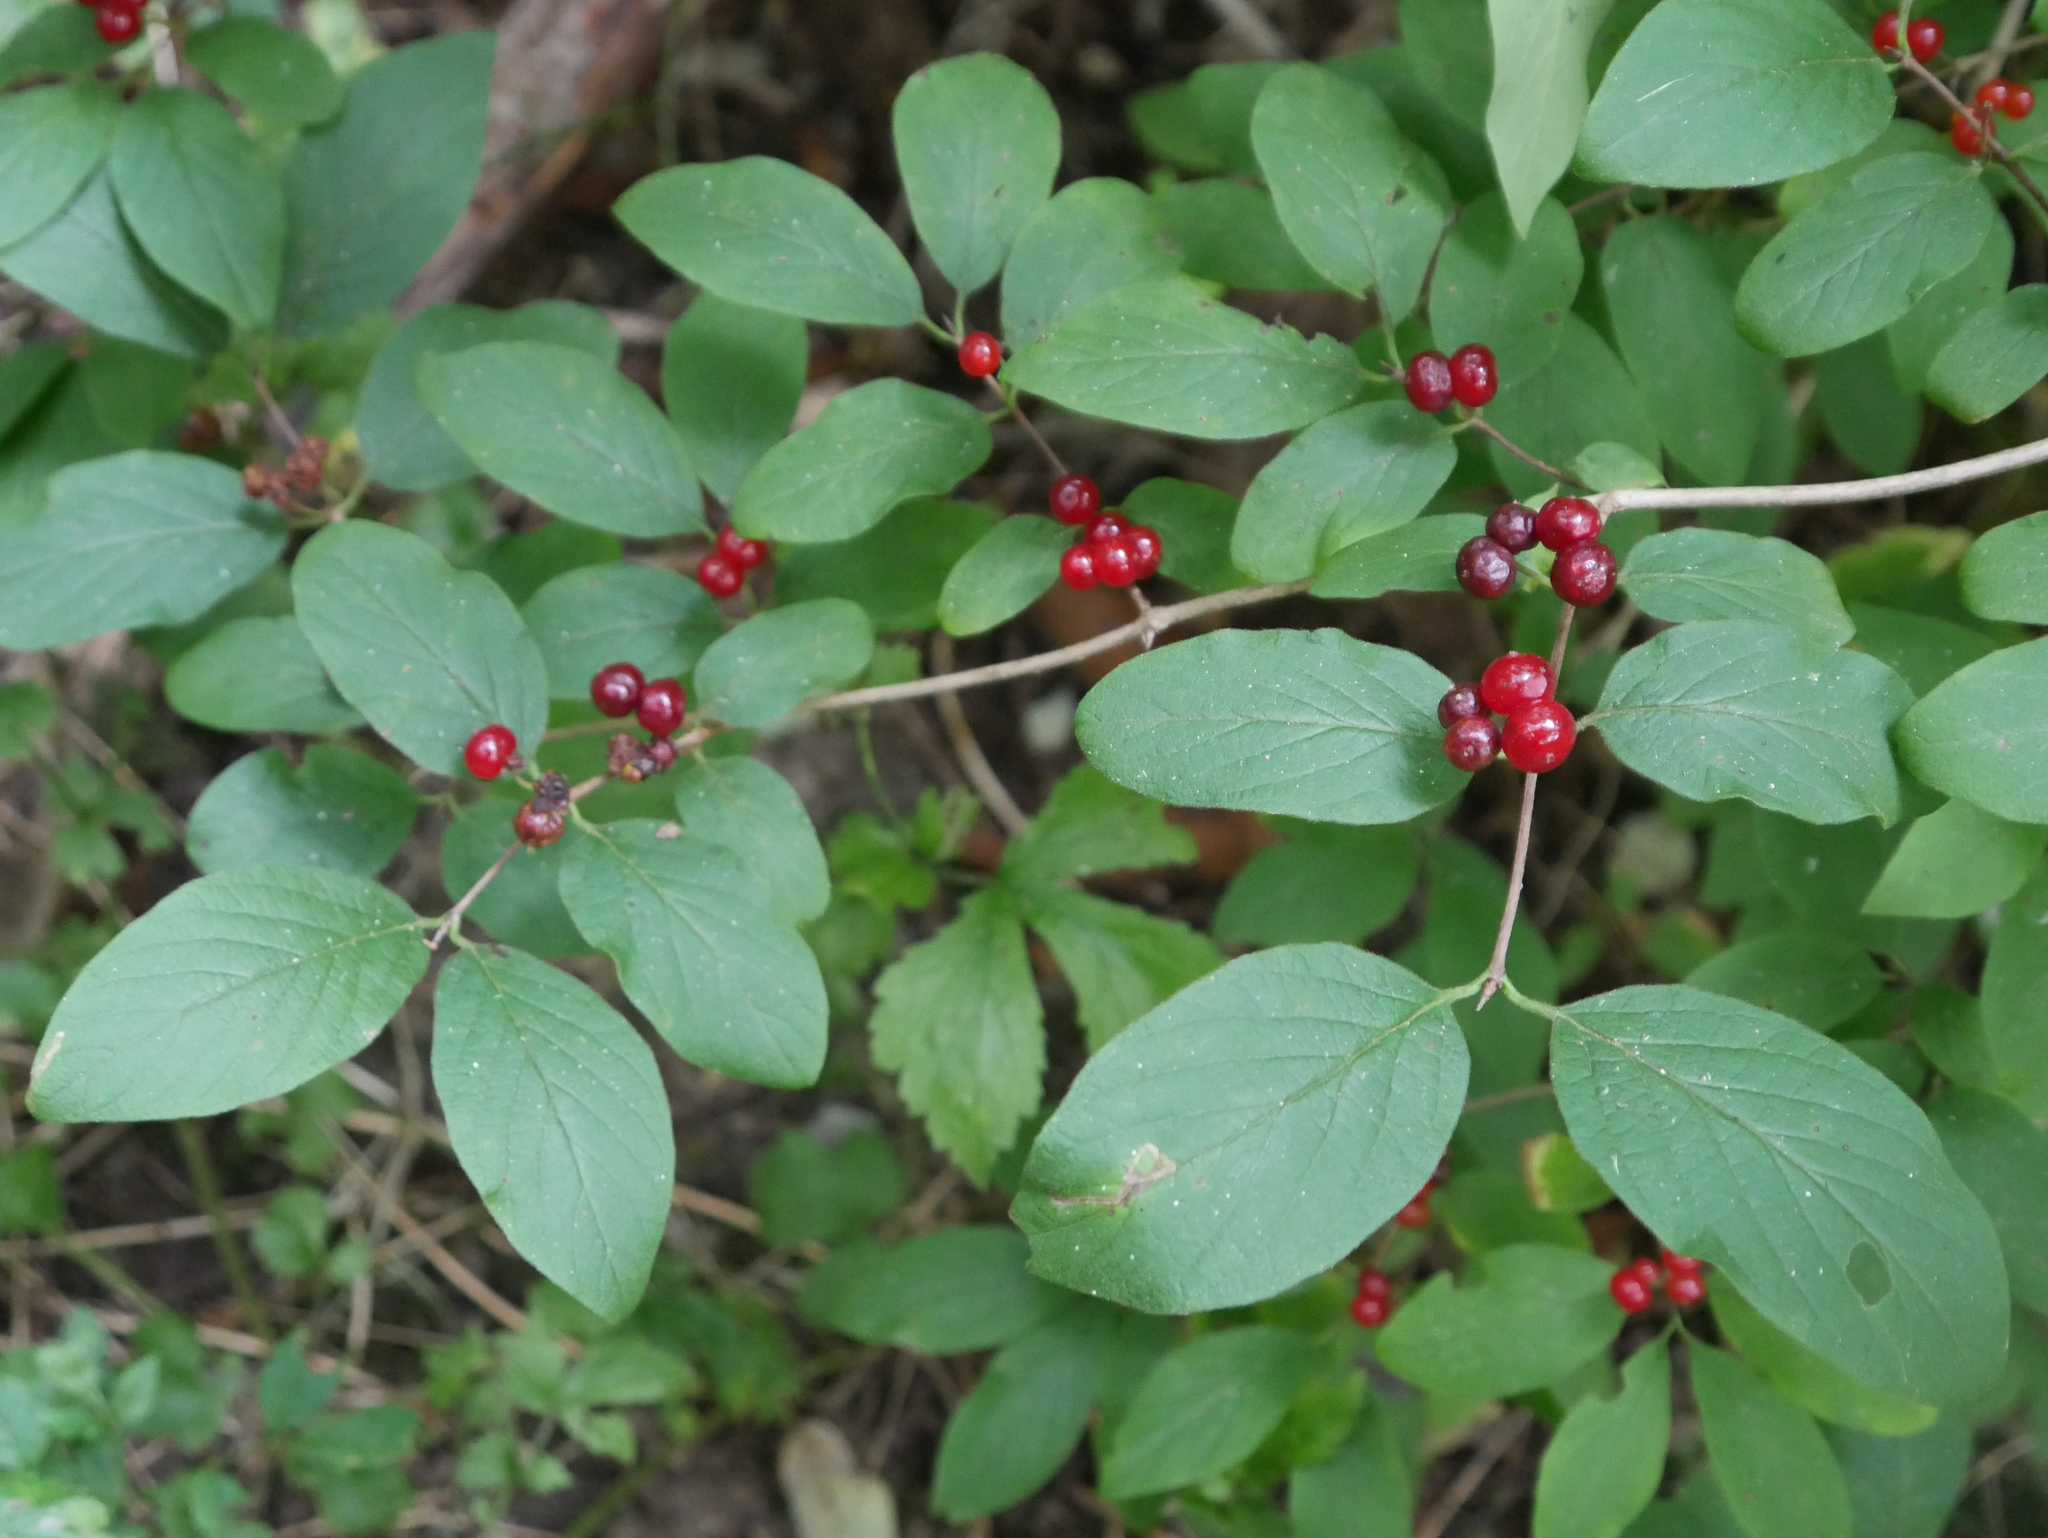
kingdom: Plantae
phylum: Tracheophyta
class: Magnoliopsida
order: Dipsacales
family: Caprifoliaceae
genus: Lonicera
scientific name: Lonicera xylosteum
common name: Fly honeysuckle
